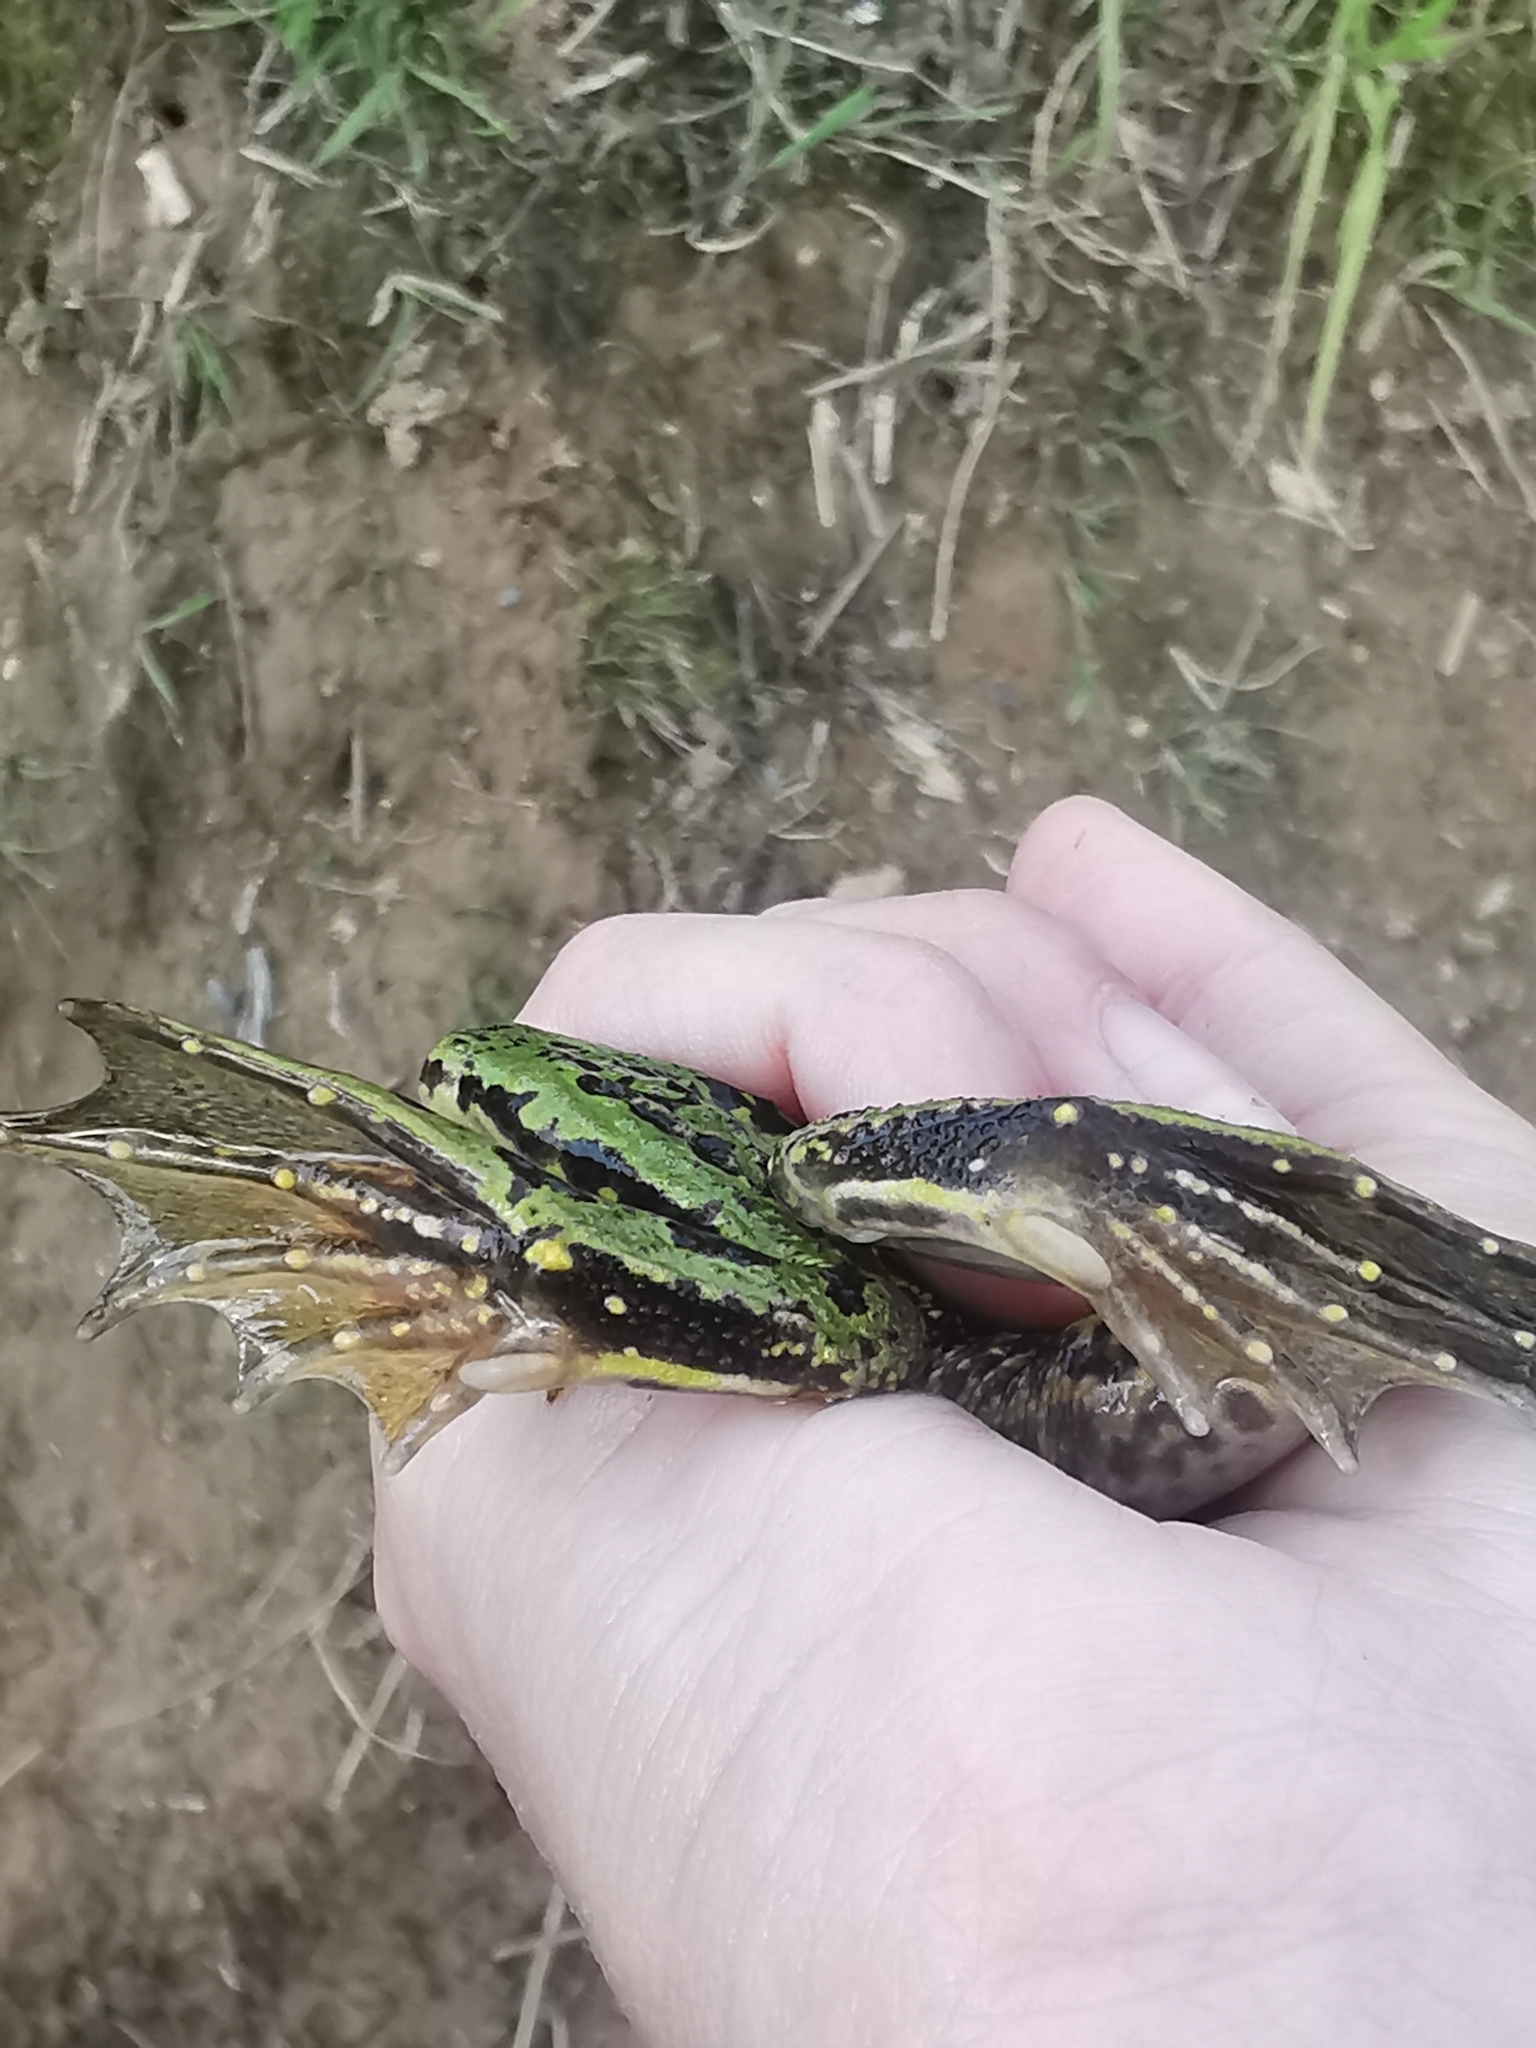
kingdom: Animalia
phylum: Chordata
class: Amphibia
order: Anura
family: Ranidae
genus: Pelophylax
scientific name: Pelophylax lessonae
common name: Pool frog
